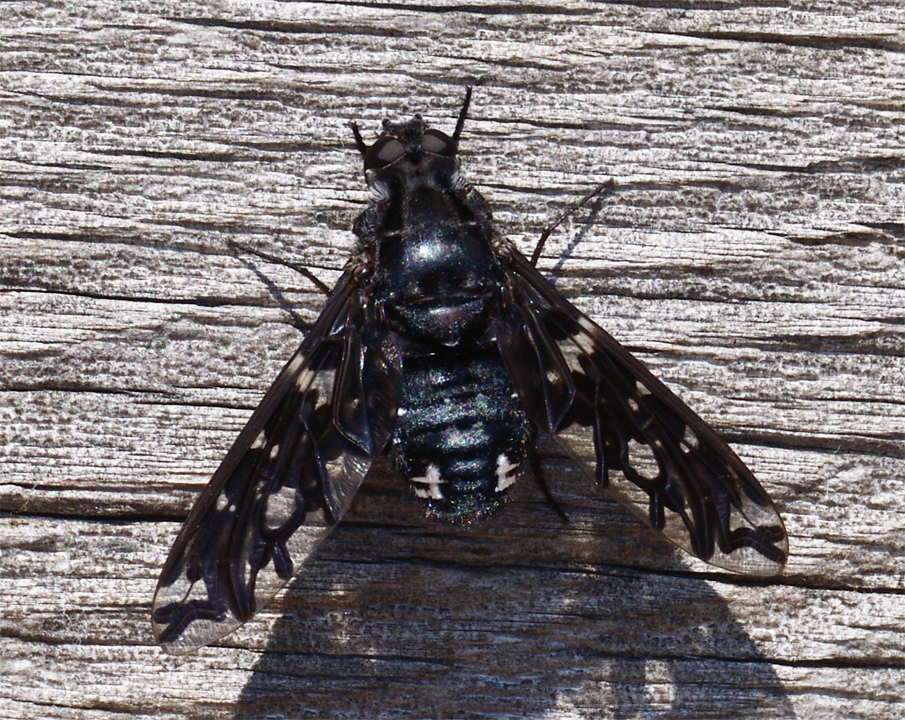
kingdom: Animalia
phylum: Arthropoda
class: Insecta
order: Diptera
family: Bombyliidae
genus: Xenox
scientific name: Xenox tigrinus
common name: Tiger bee fly
